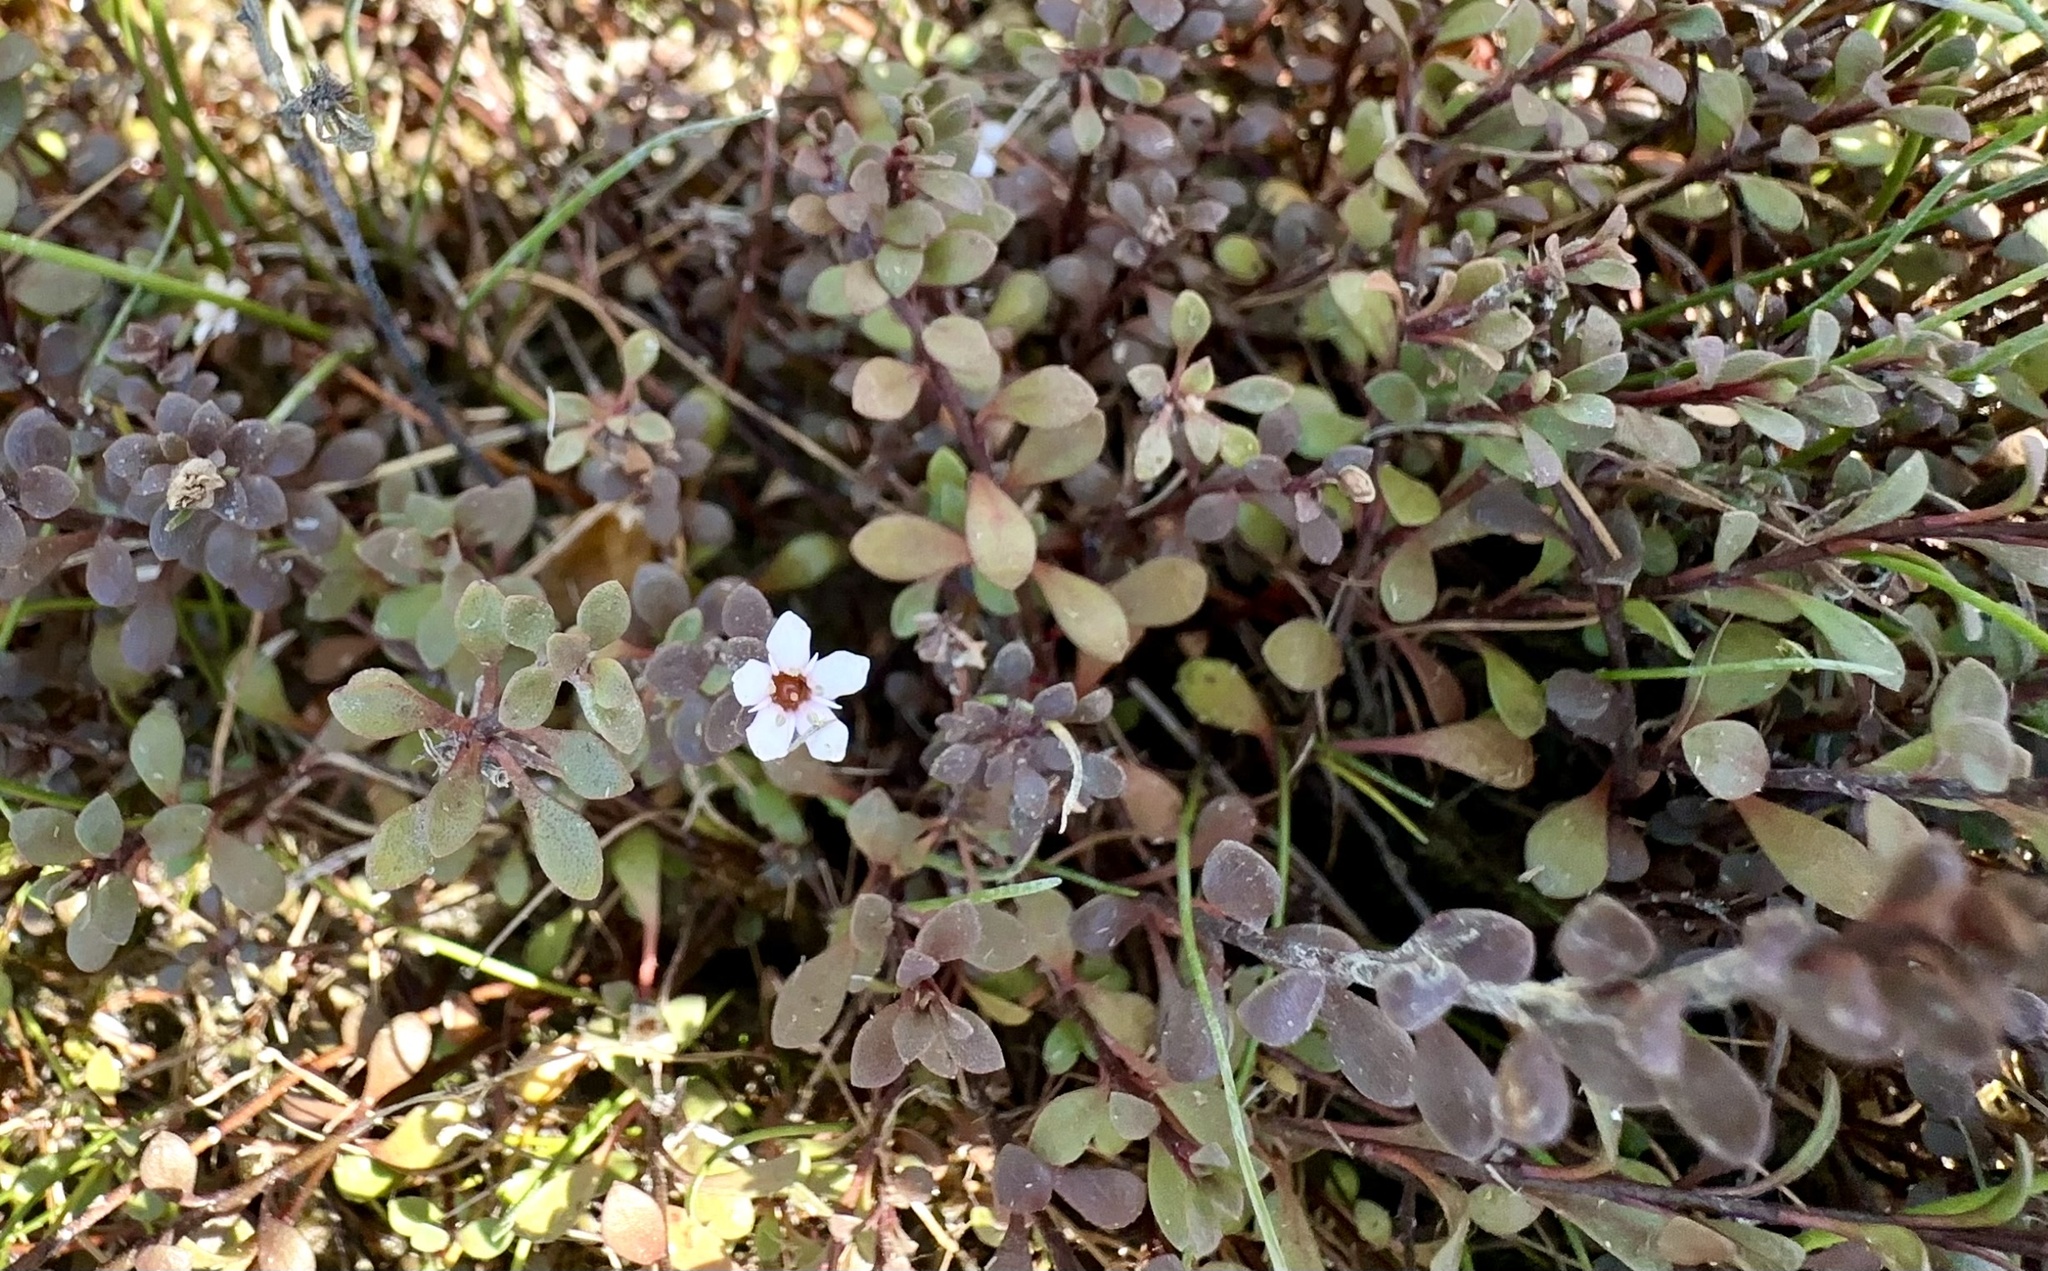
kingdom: Plantae
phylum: Tracheophyta
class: Magnoliopsida
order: Ericales
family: Primulaceae
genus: Samolus
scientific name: Samolus repens
